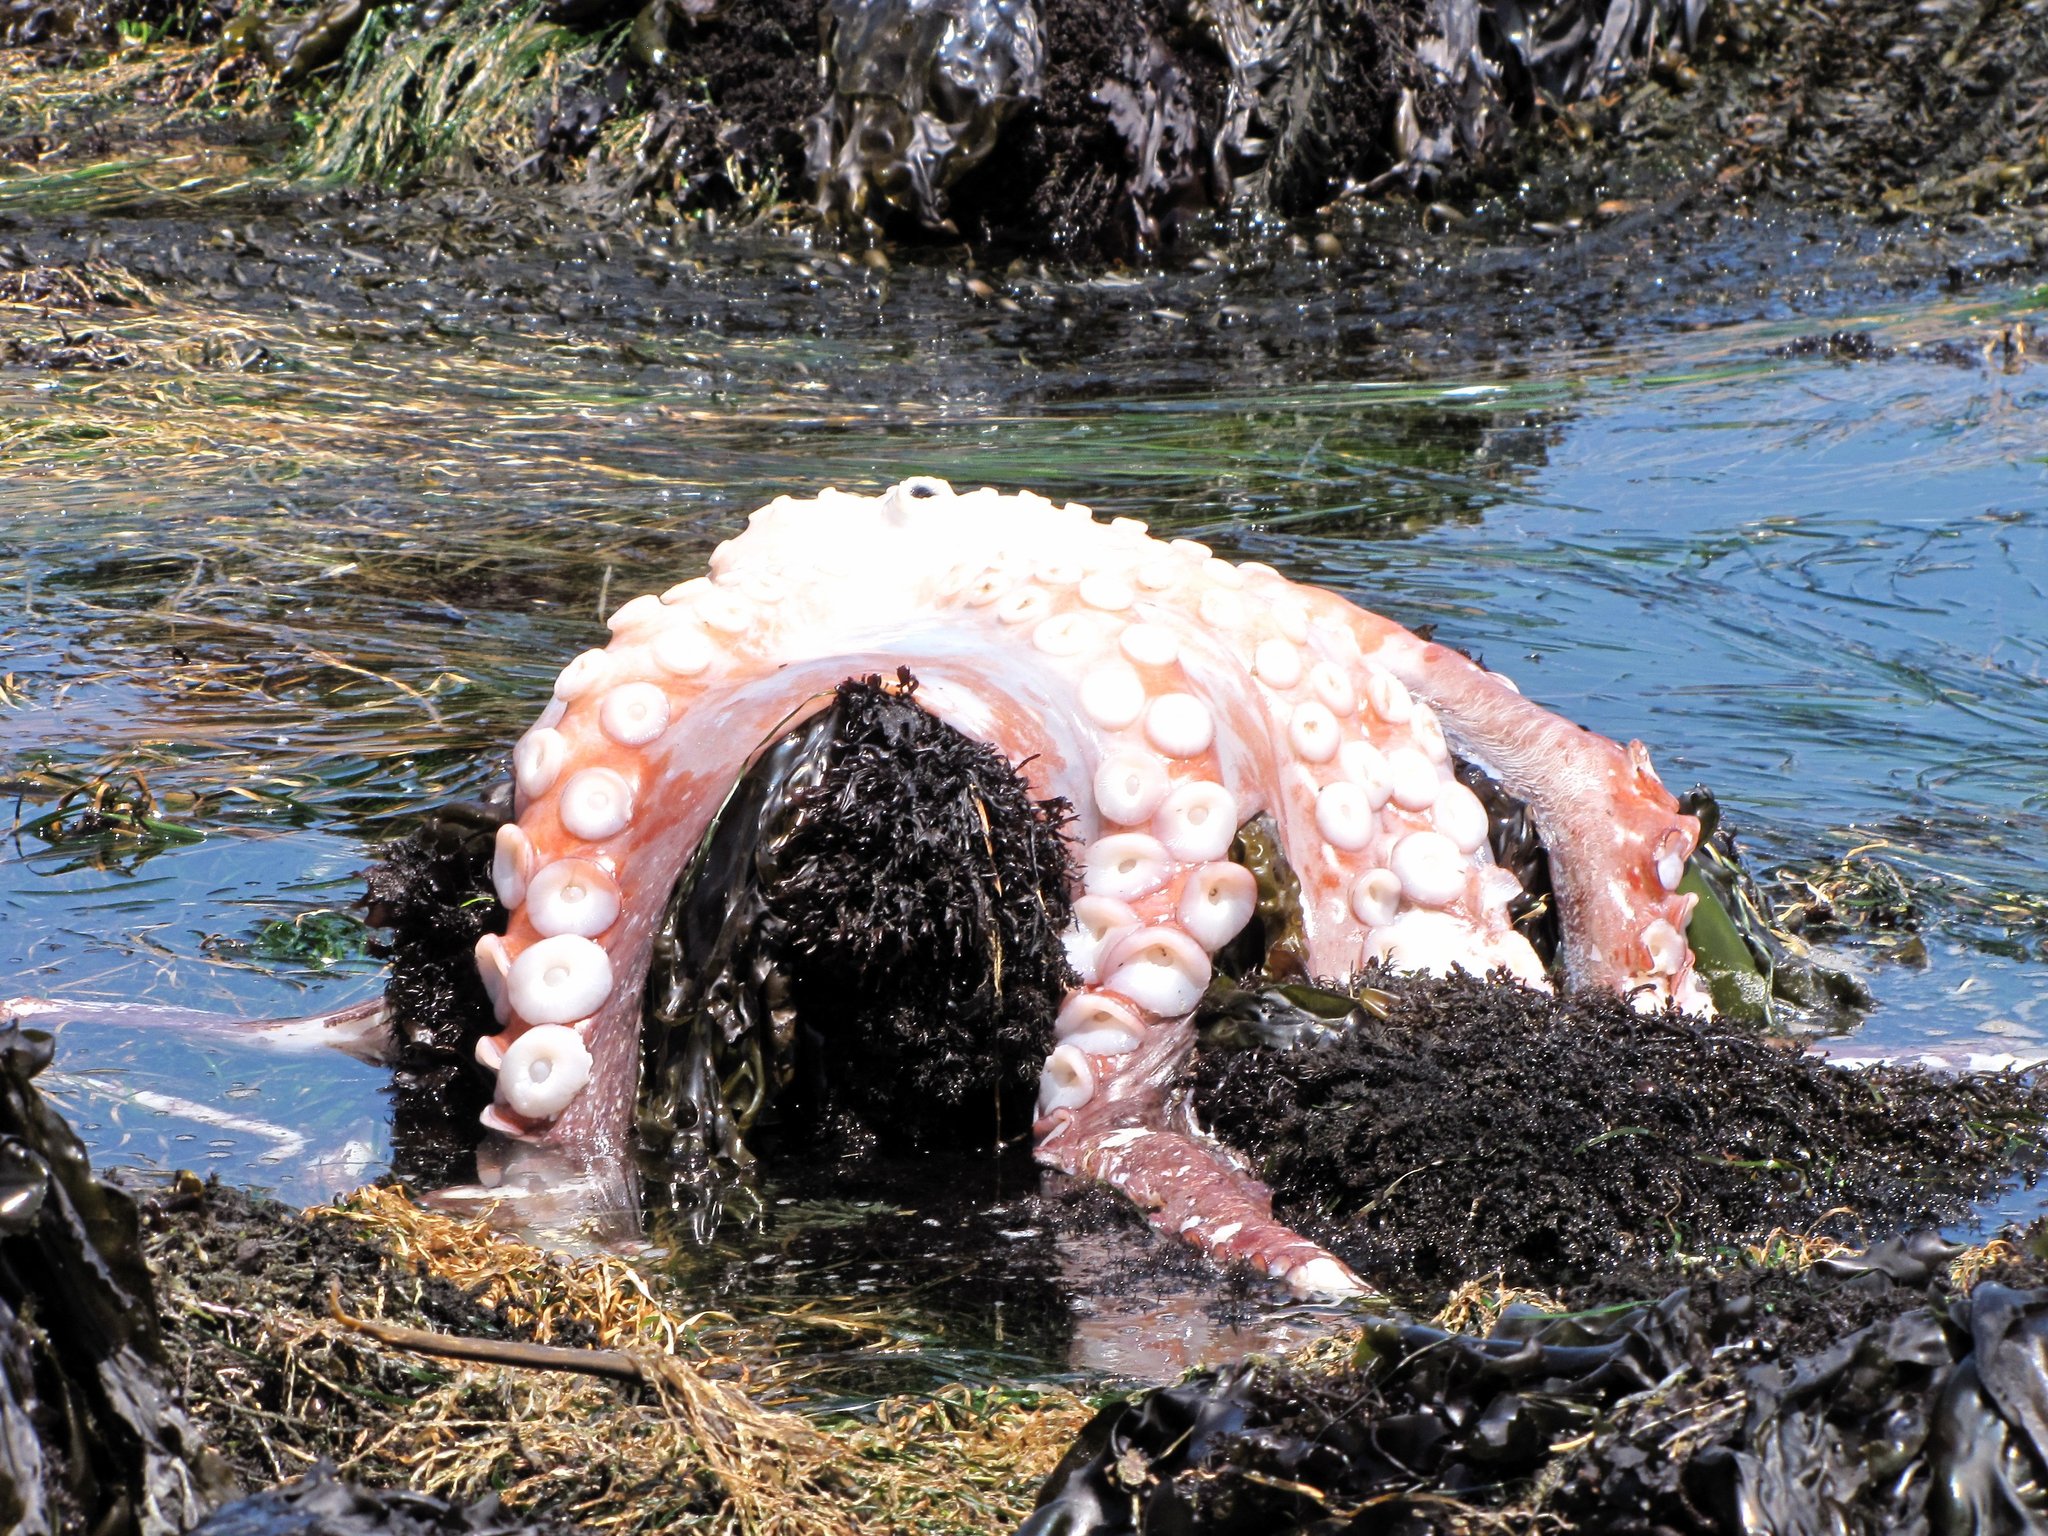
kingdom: Animalia
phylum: Mollusca
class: Cephalopoda
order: Octopoda
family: Enteroctopodidae
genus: Enteroctopus
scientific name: Enteroctopus dofleini
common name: Giant north pacific octopus
